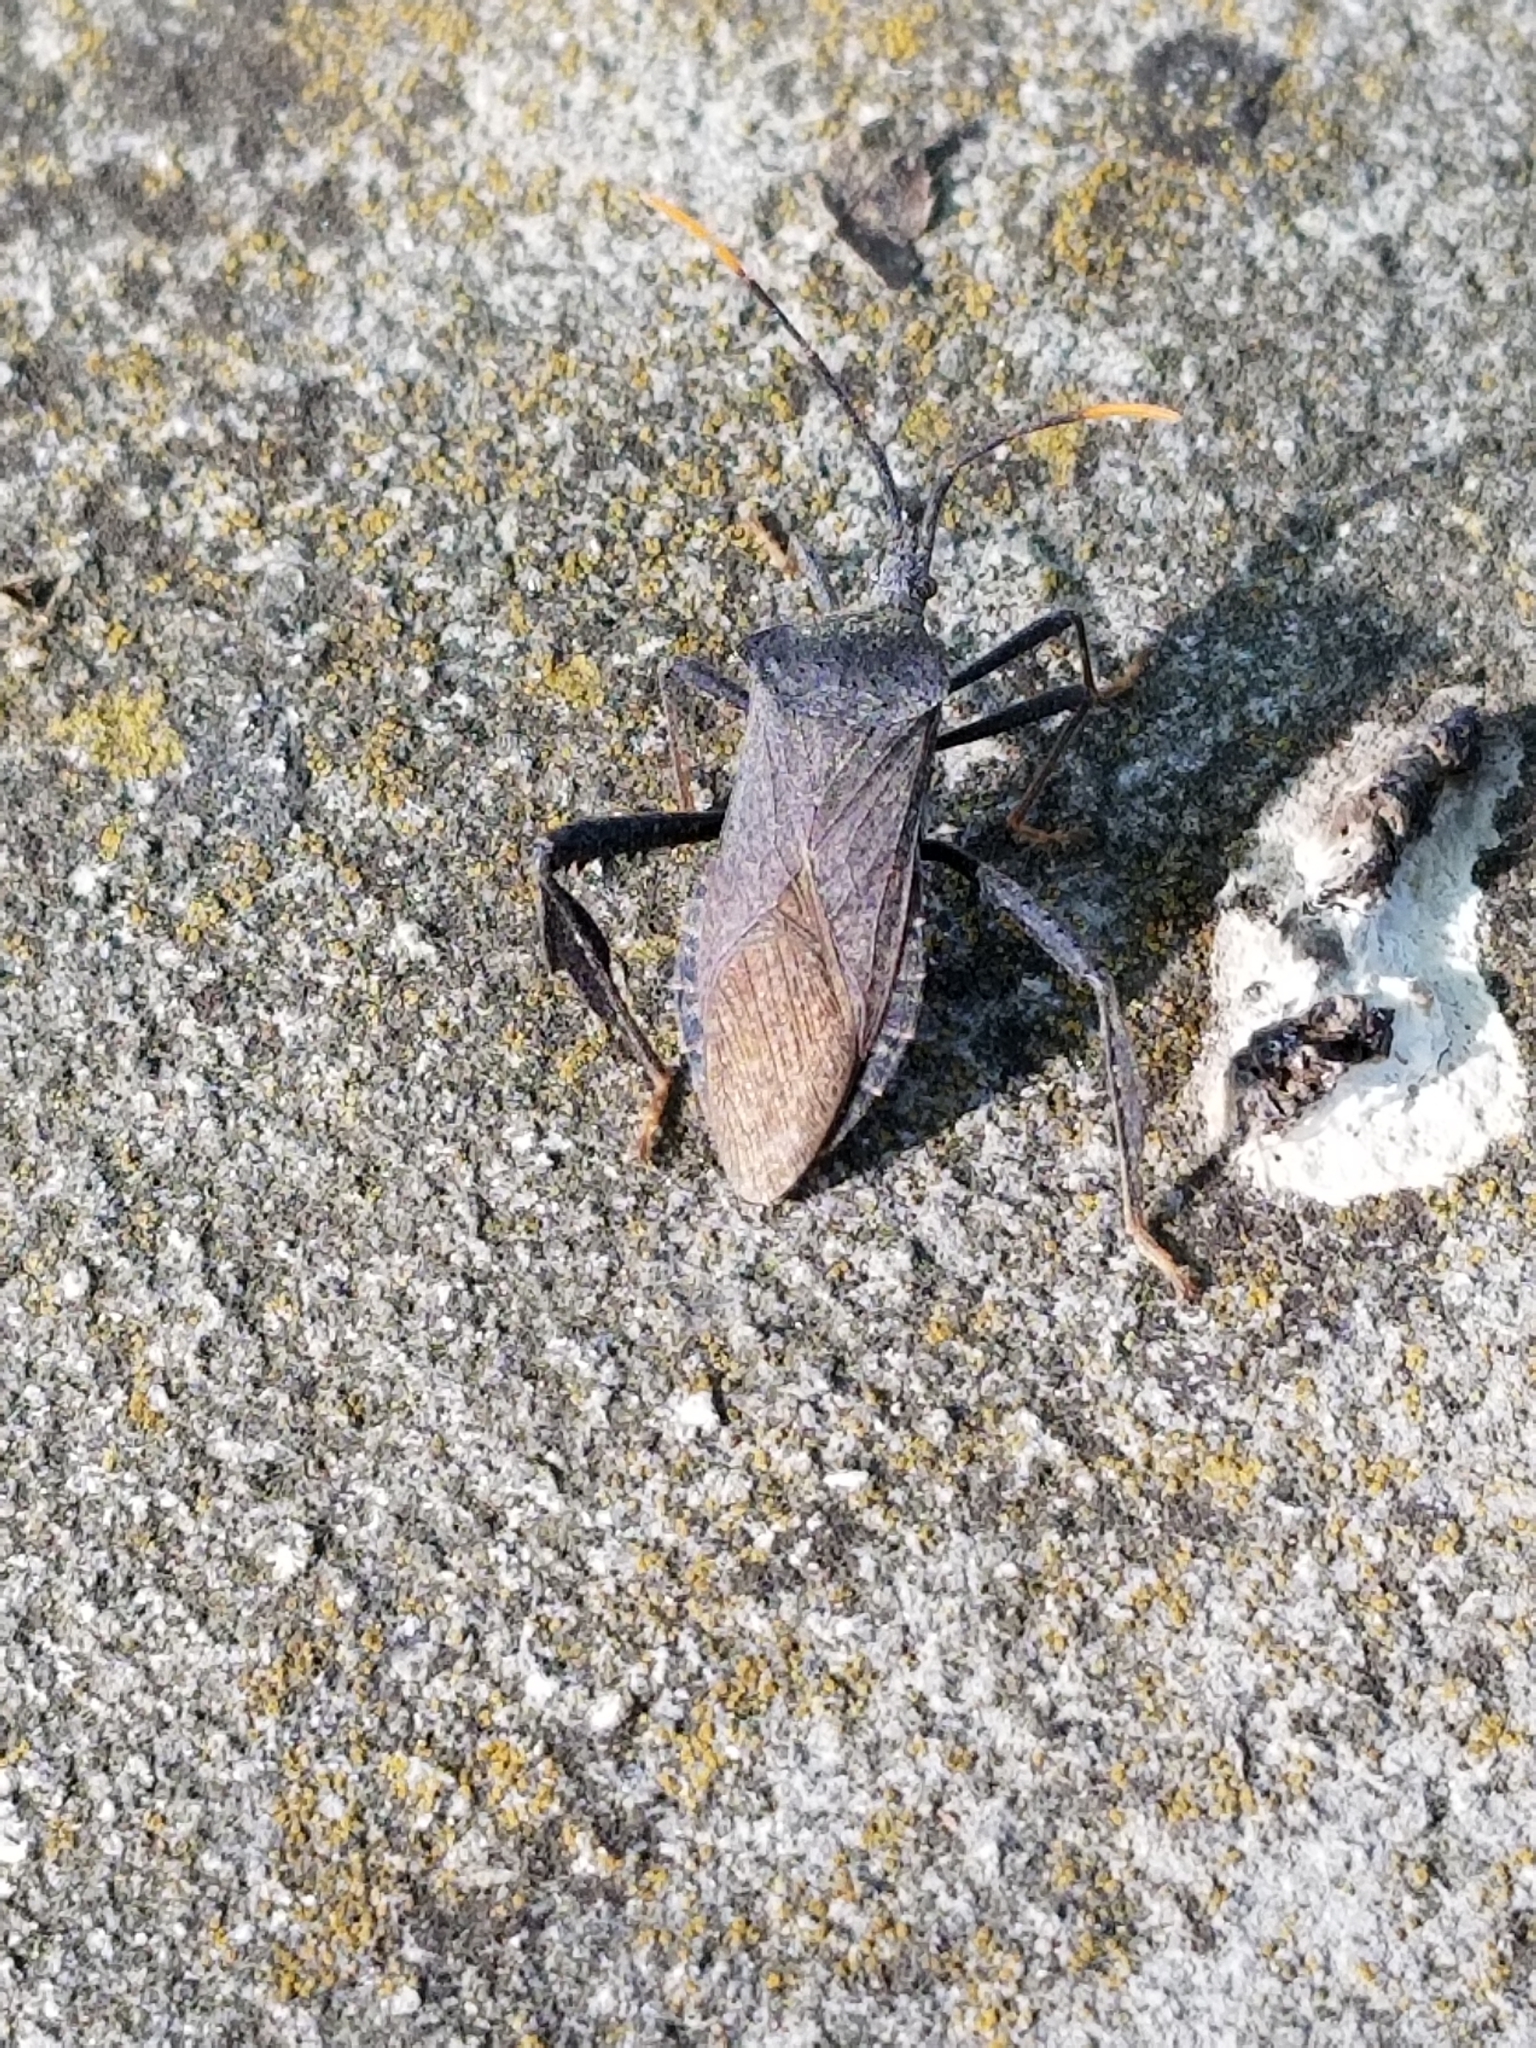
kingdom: Animalia
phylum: Arthropoda
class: Insecta
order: Hemiptera
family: Coreidae
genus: Acanthocephala
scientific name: Acanthocephala terminalis
